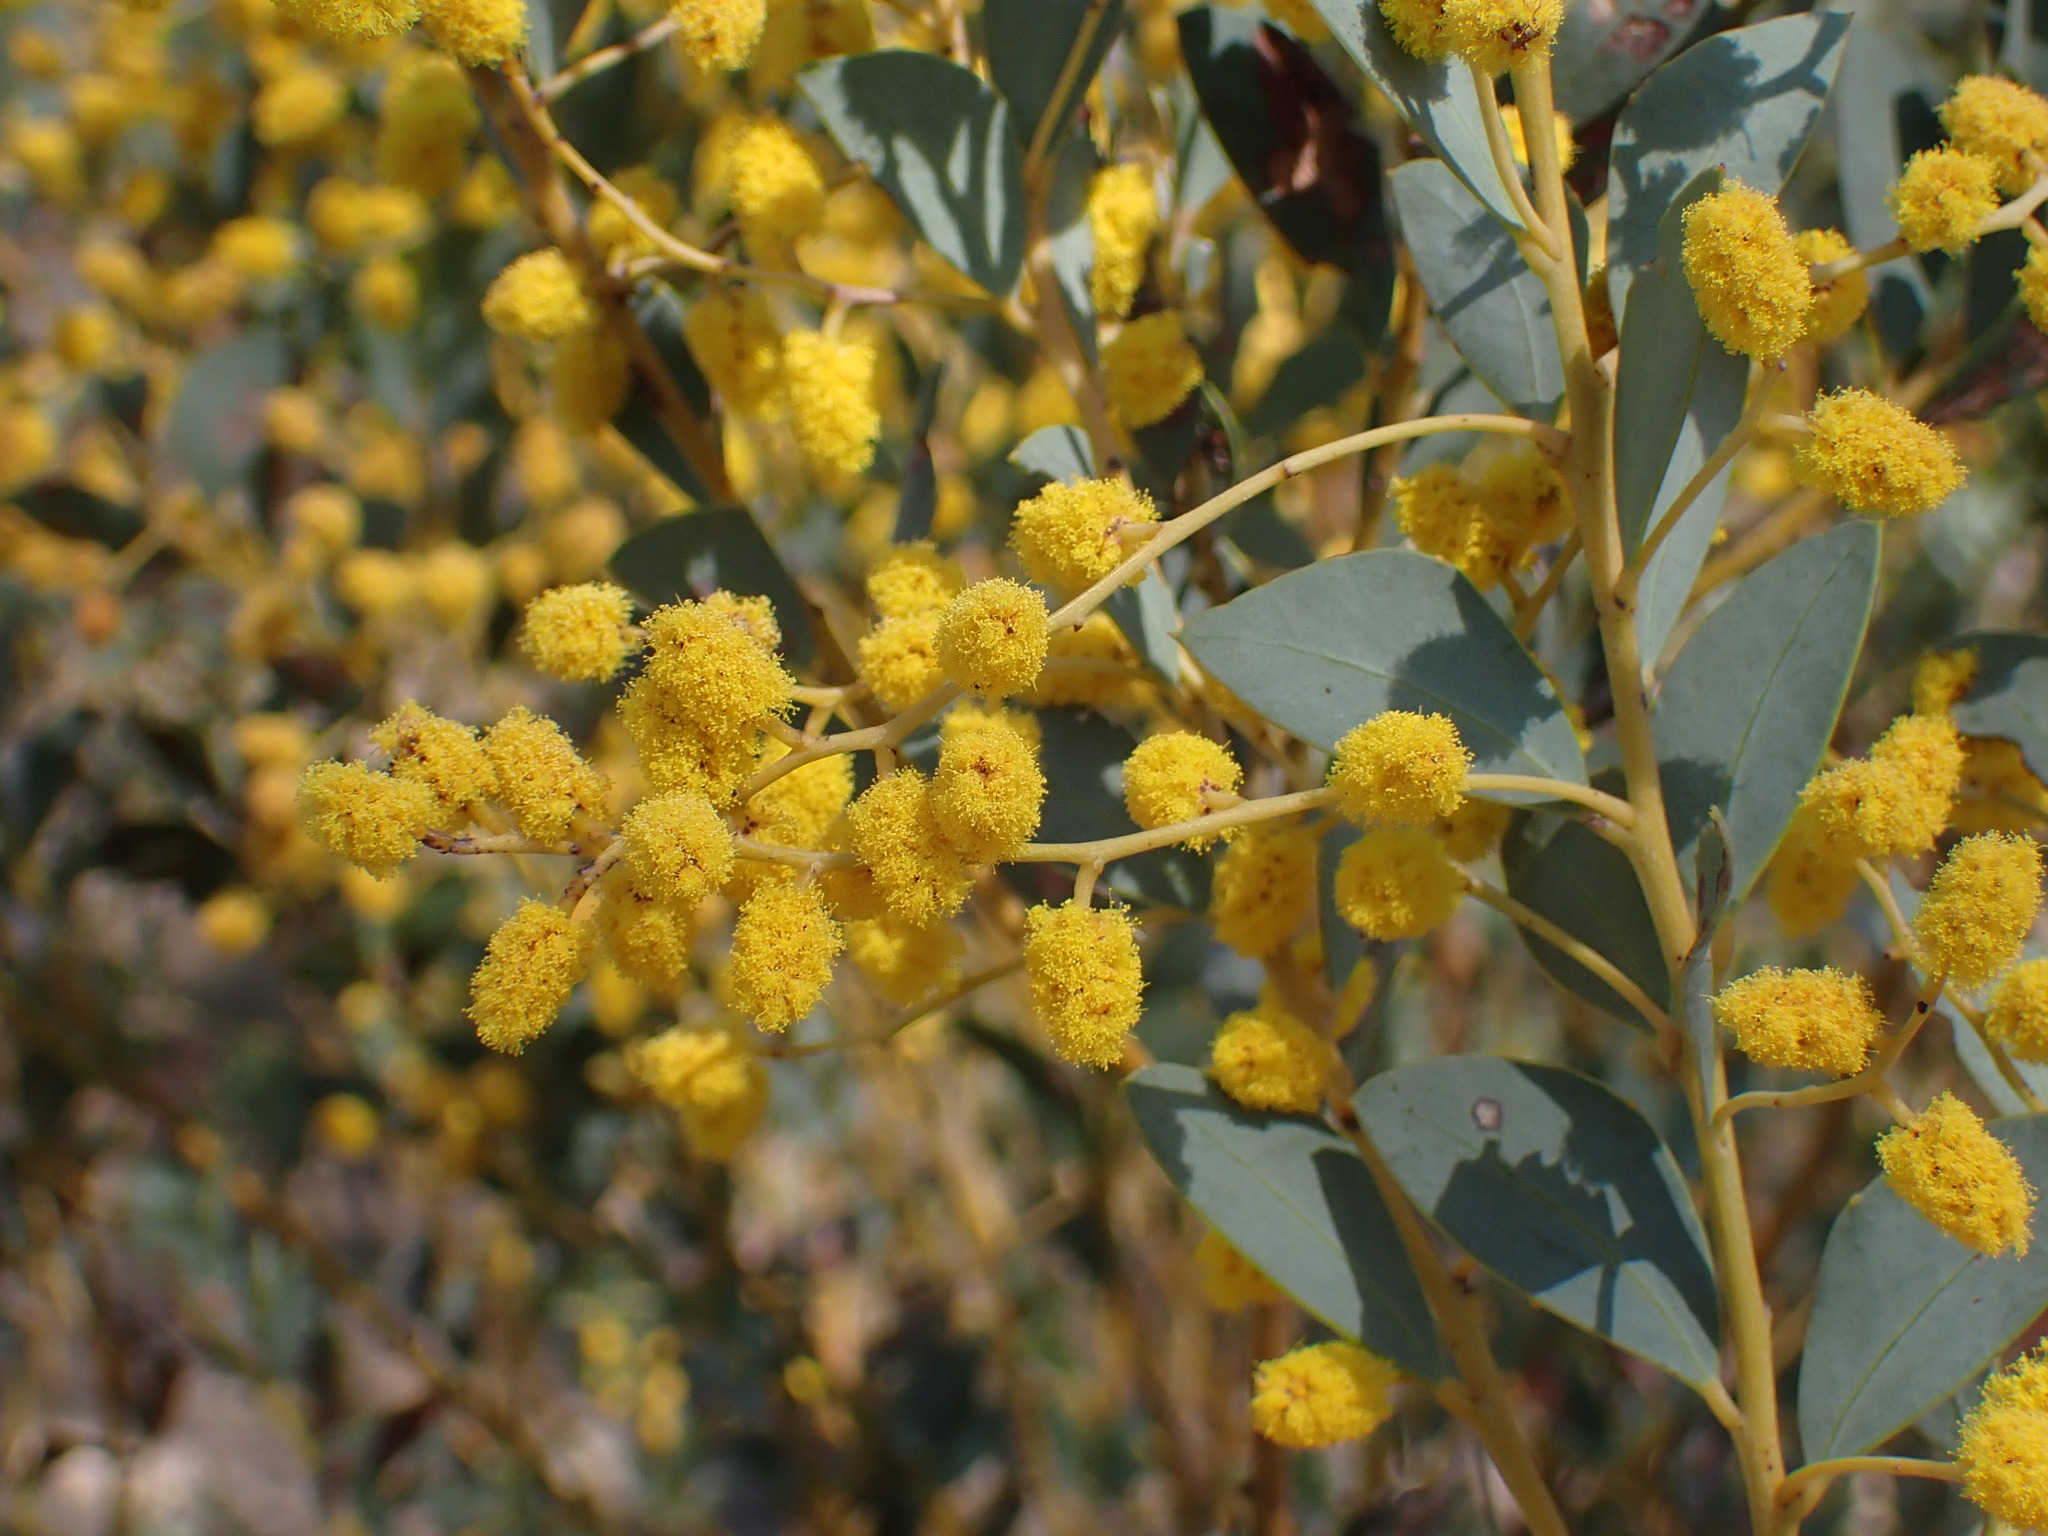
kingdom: Plantae
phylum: Tracheophyta
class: Magnoliopsida
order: Fabales
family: Fabaceae
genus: Acacia
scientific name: Acacia cultriformis
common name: Knife acacia
